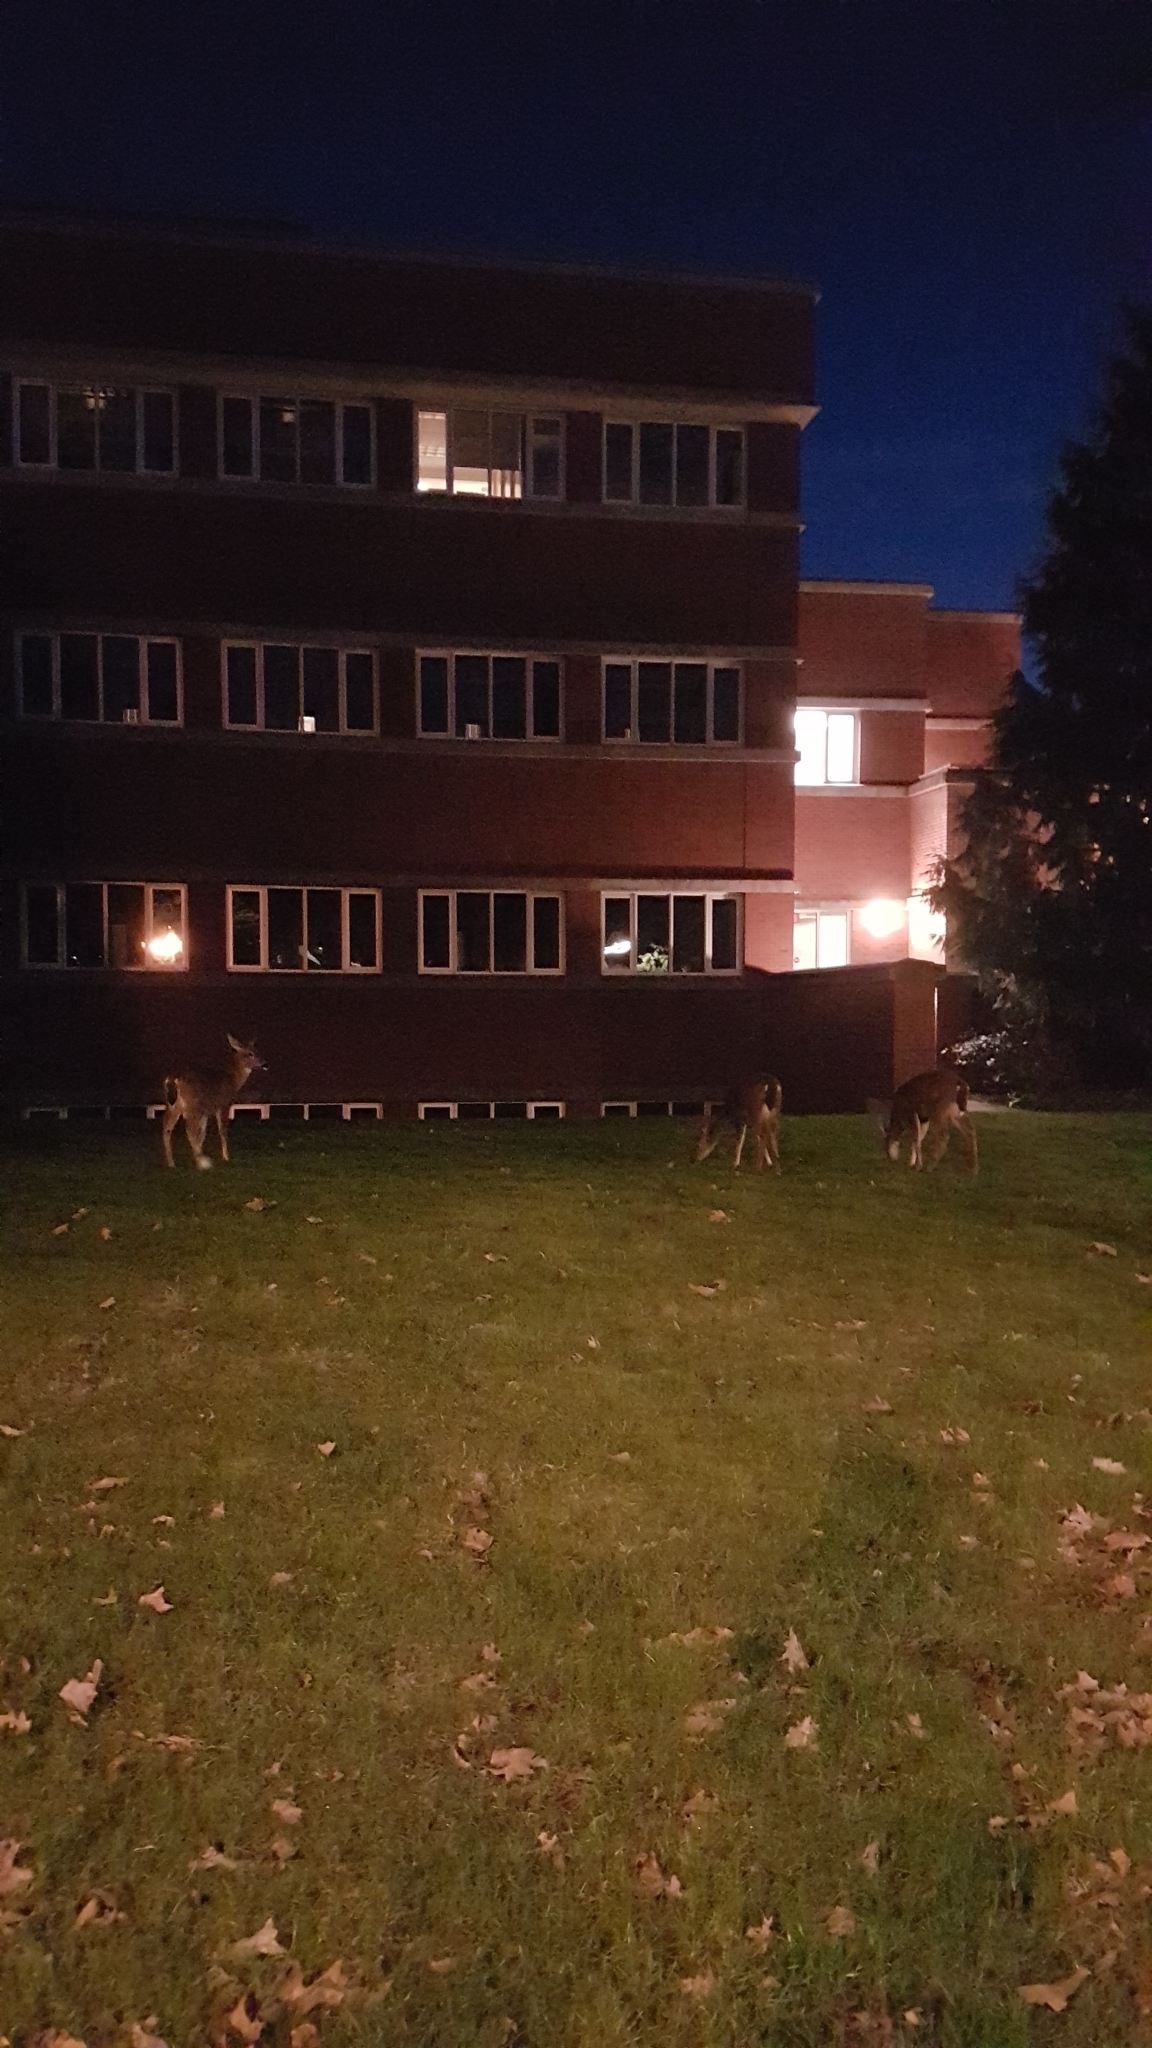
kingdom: Animalia
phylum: Chordata
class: Mammalia
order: Artiodactyla
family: Cervidae
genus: Odocoileus
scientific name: Odocoileus hemionus
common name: Mule deer
